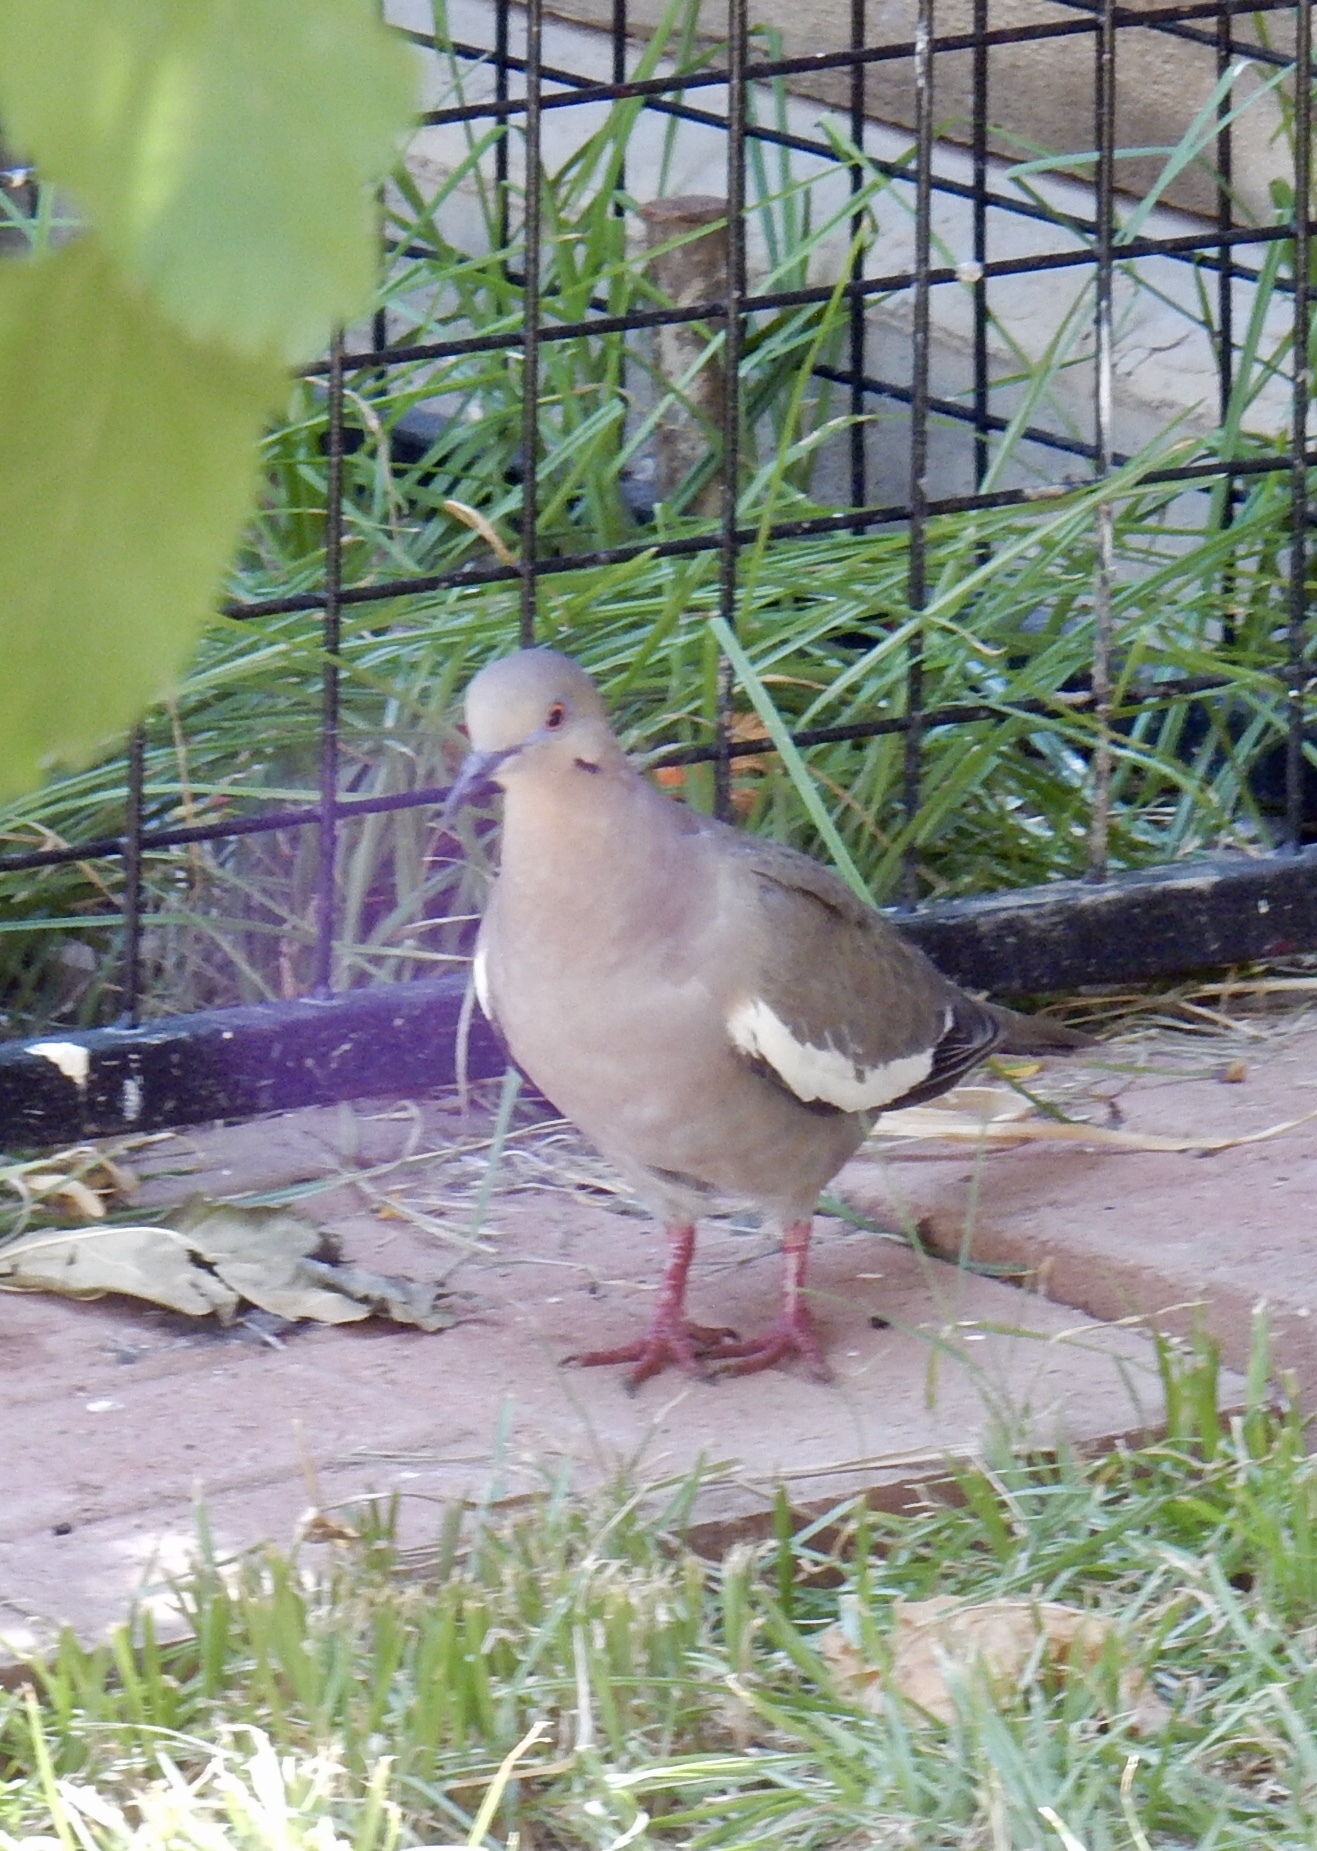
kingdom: Animalia
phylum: Chordata
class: Aves
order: Columbiformes
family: Columbidae
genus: Zenaida
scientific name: Zenaida asiatica
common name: White-winged dove
